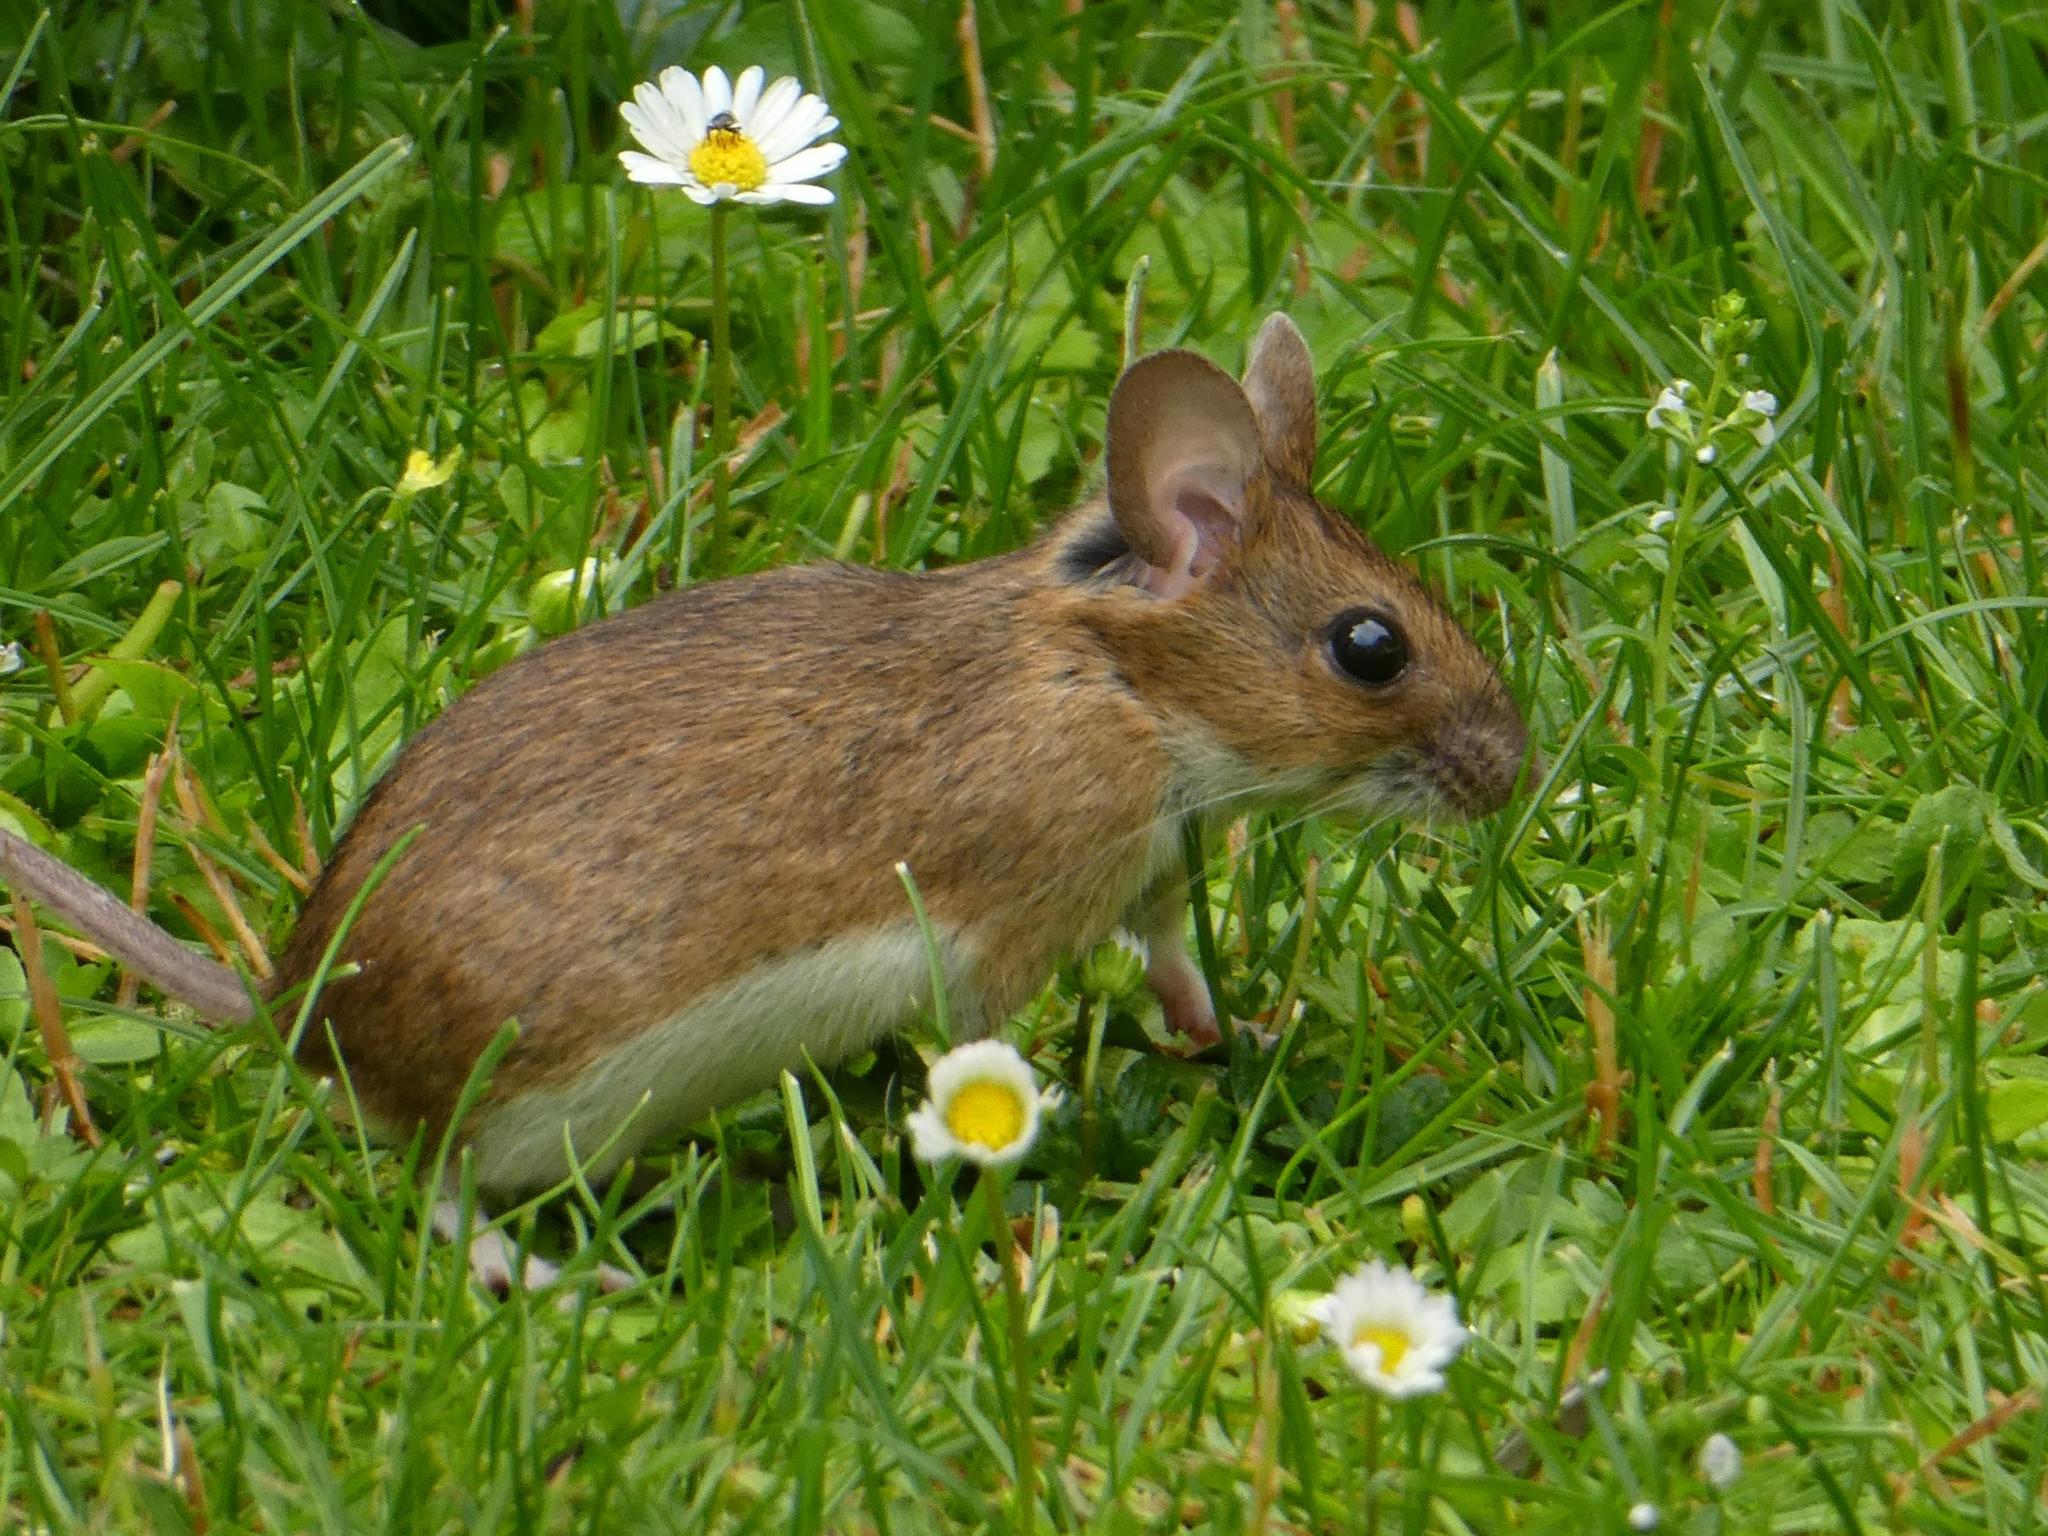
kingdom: Animalia
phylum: Chordata
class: Mammalia
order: Rodentia
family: Muridae
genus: Apodemus
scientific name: Apodemus flavicollis
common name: Yellow-necked field mouse
